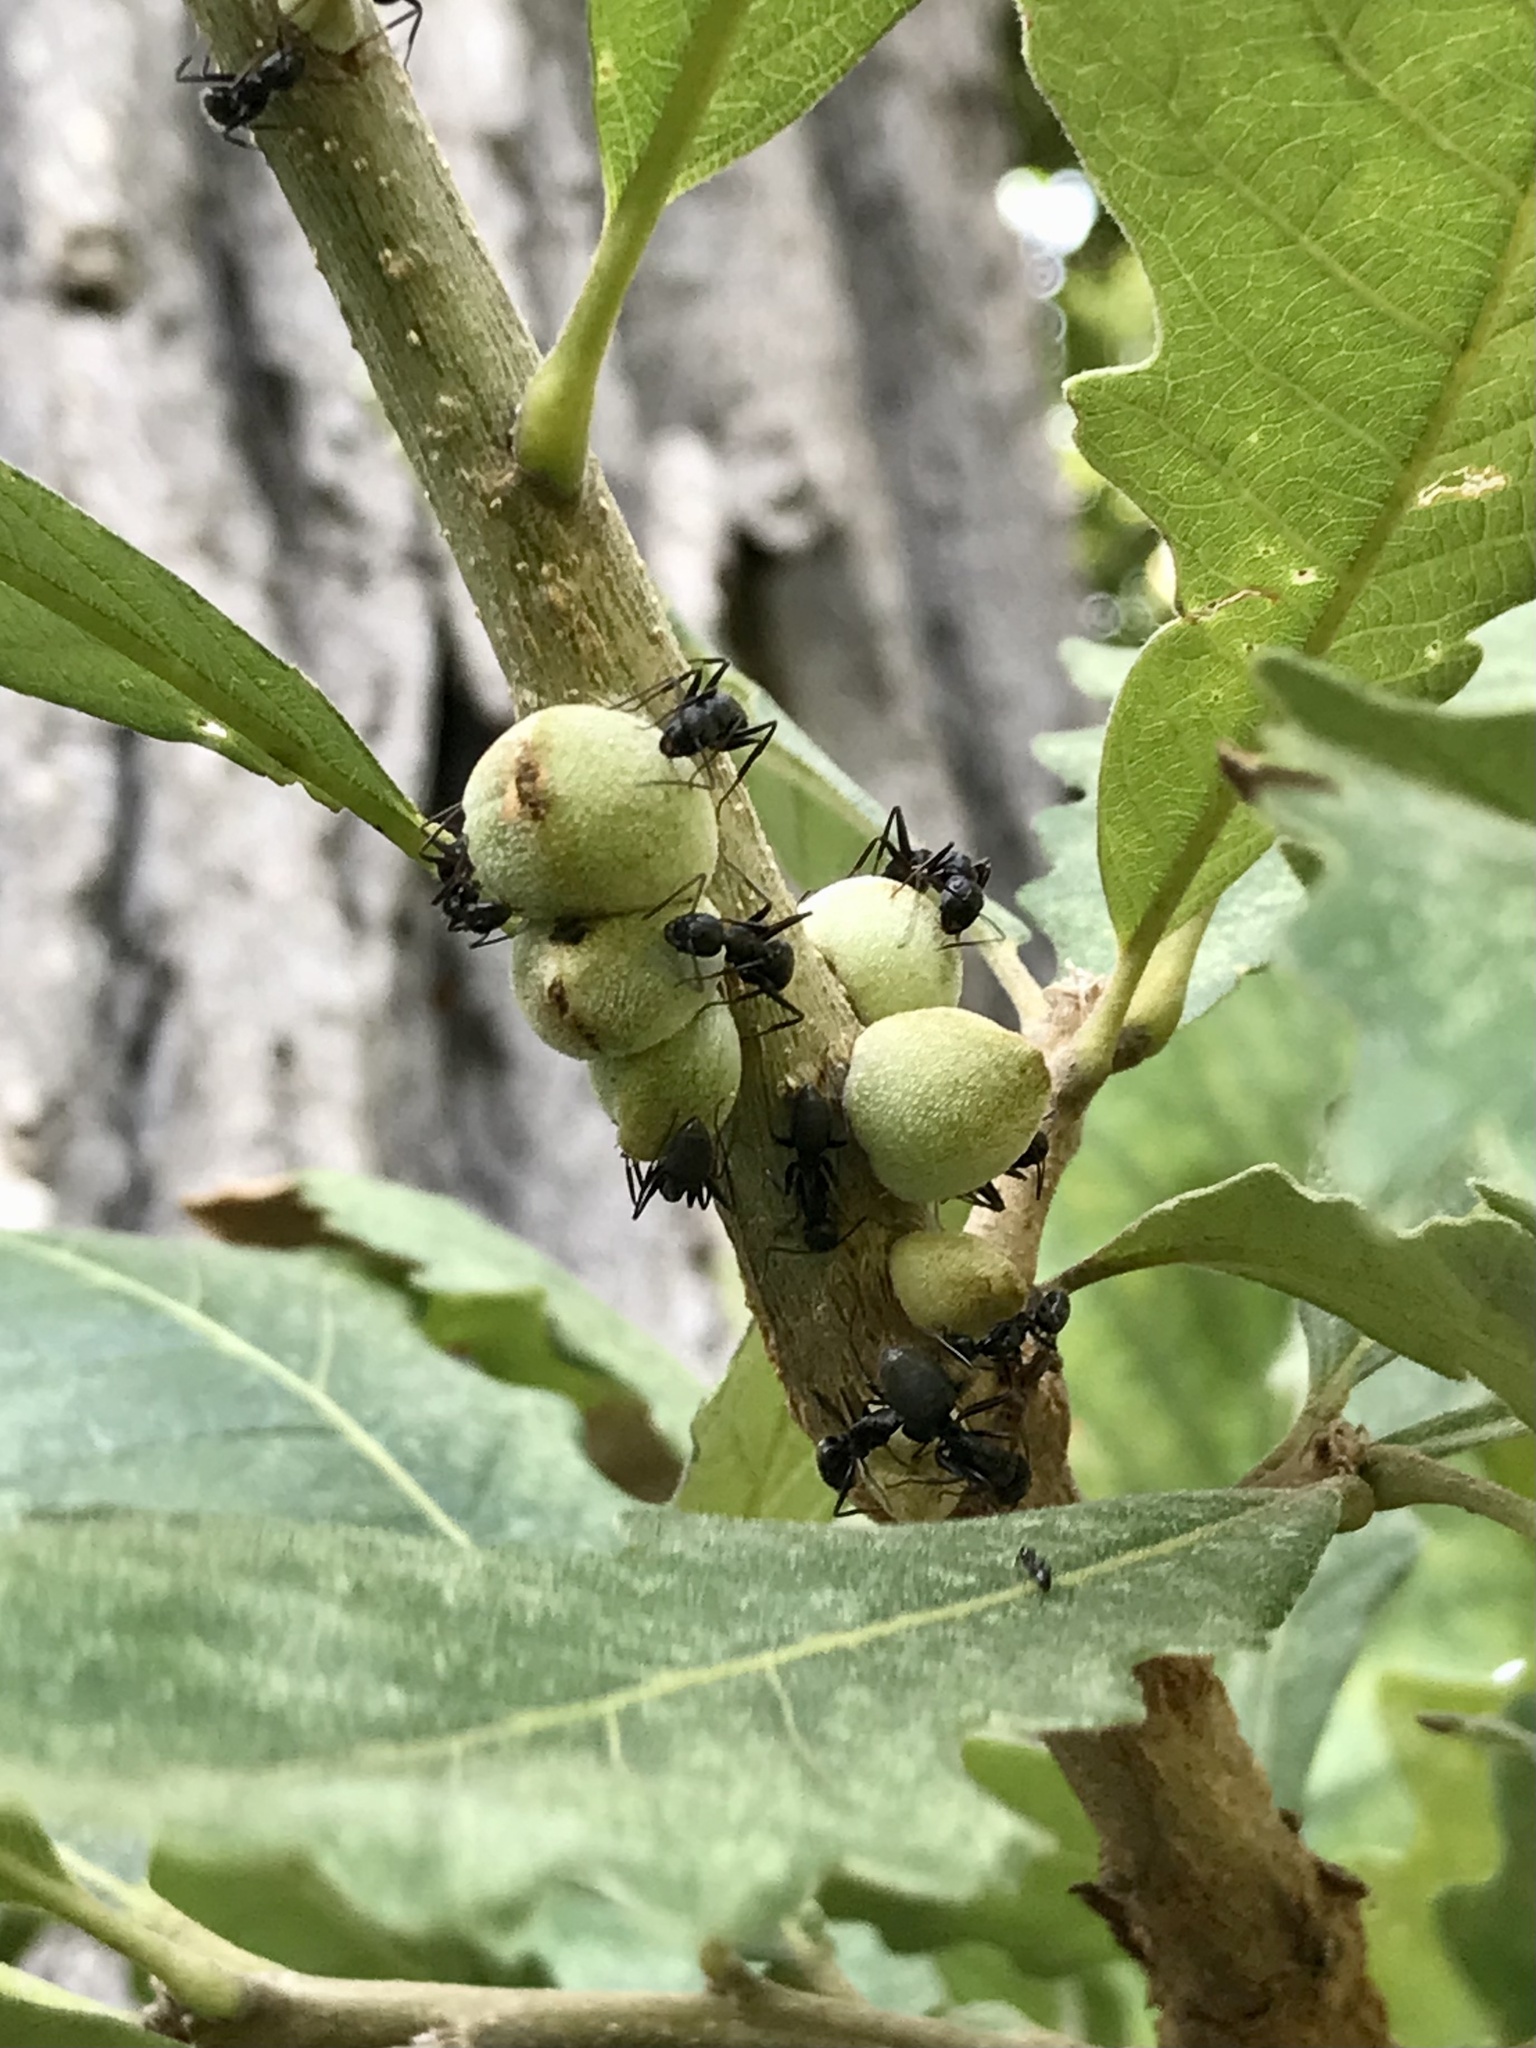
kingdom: Animalia
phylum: Arthropoda
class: Insecta
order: Hymenoptera
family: Cynipidae
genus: Disholcaspis
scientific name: Disholcaspis
